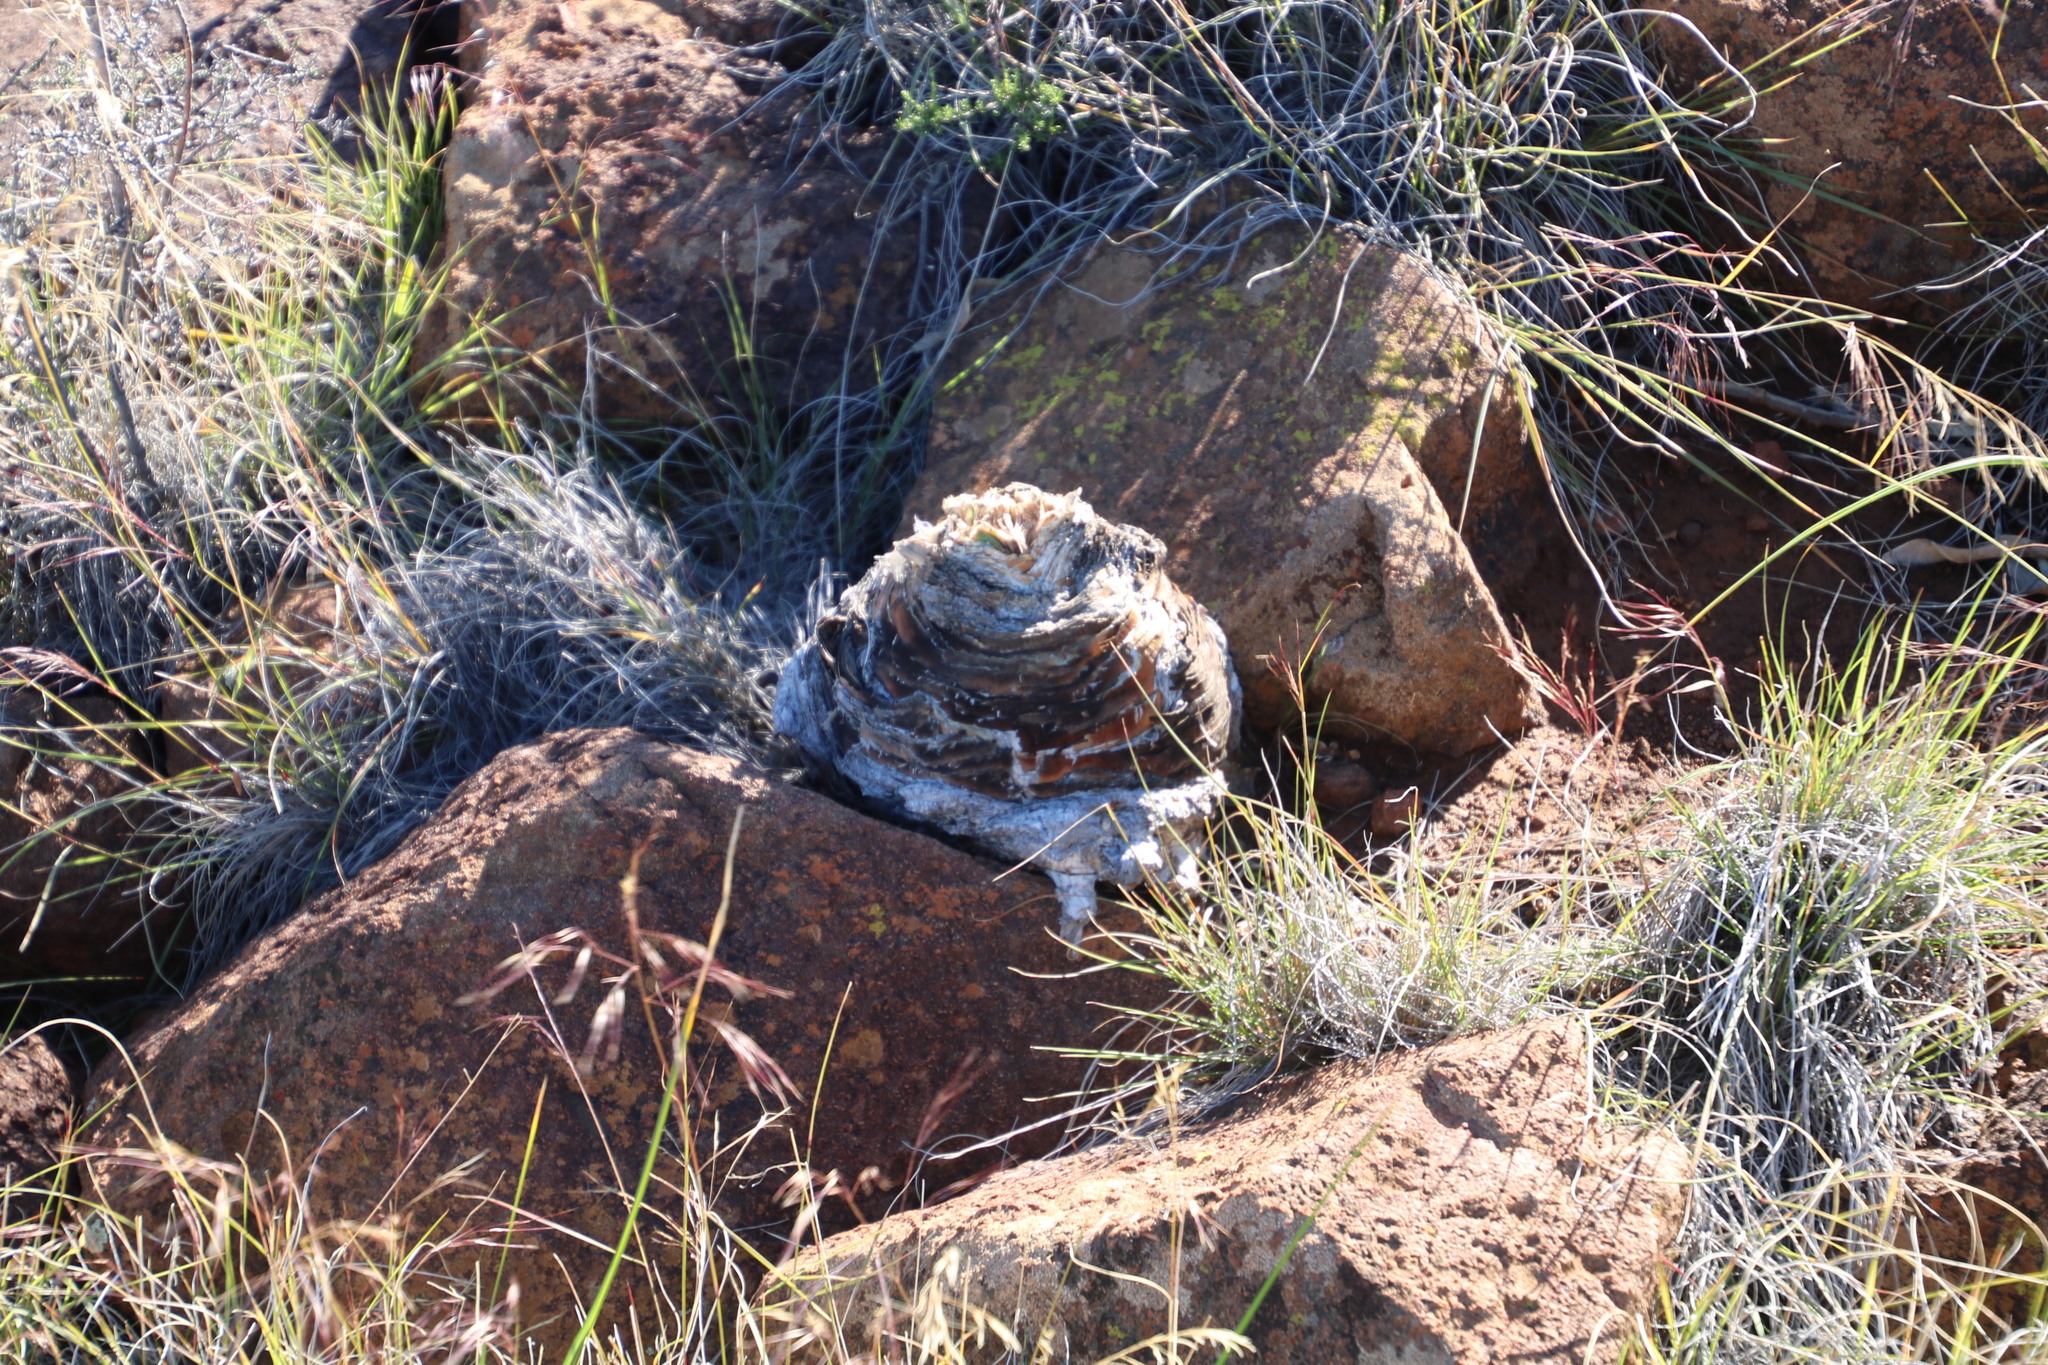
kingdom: Plantae
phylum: Tracheophyta
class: Liliopsida
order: Asparagales
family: Amaryllidaceae
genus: Boophone
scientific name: Boophone disticha
